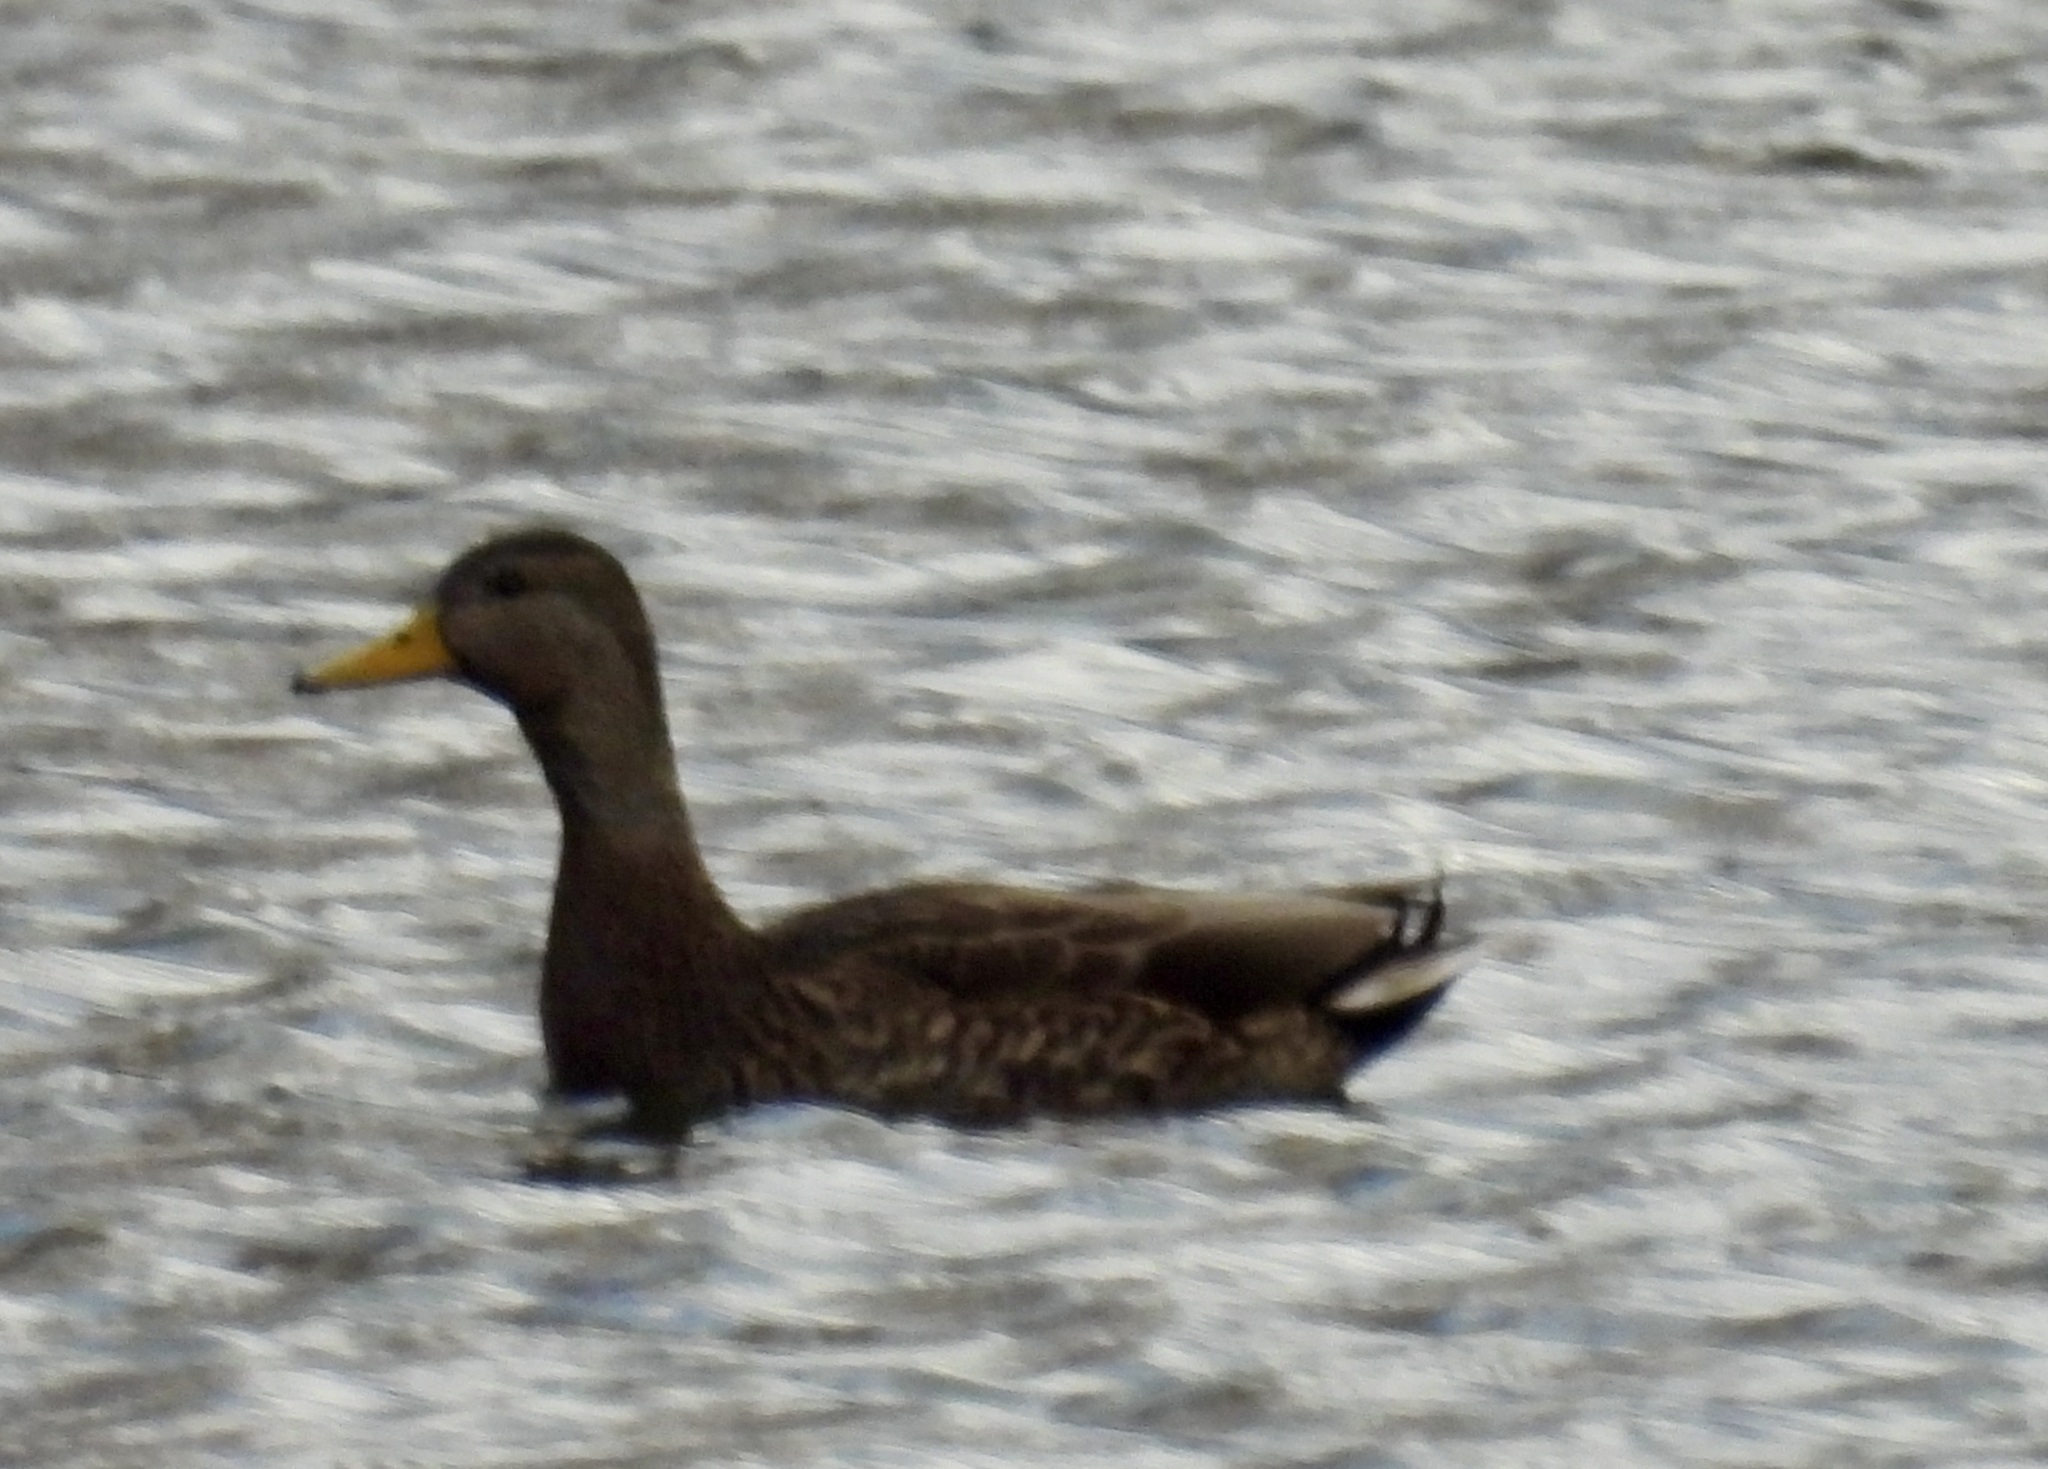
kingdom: Animalia
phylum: Chordata
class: Aves
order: Anseriformes
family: Anatidae
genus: Anas
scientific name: Anas
